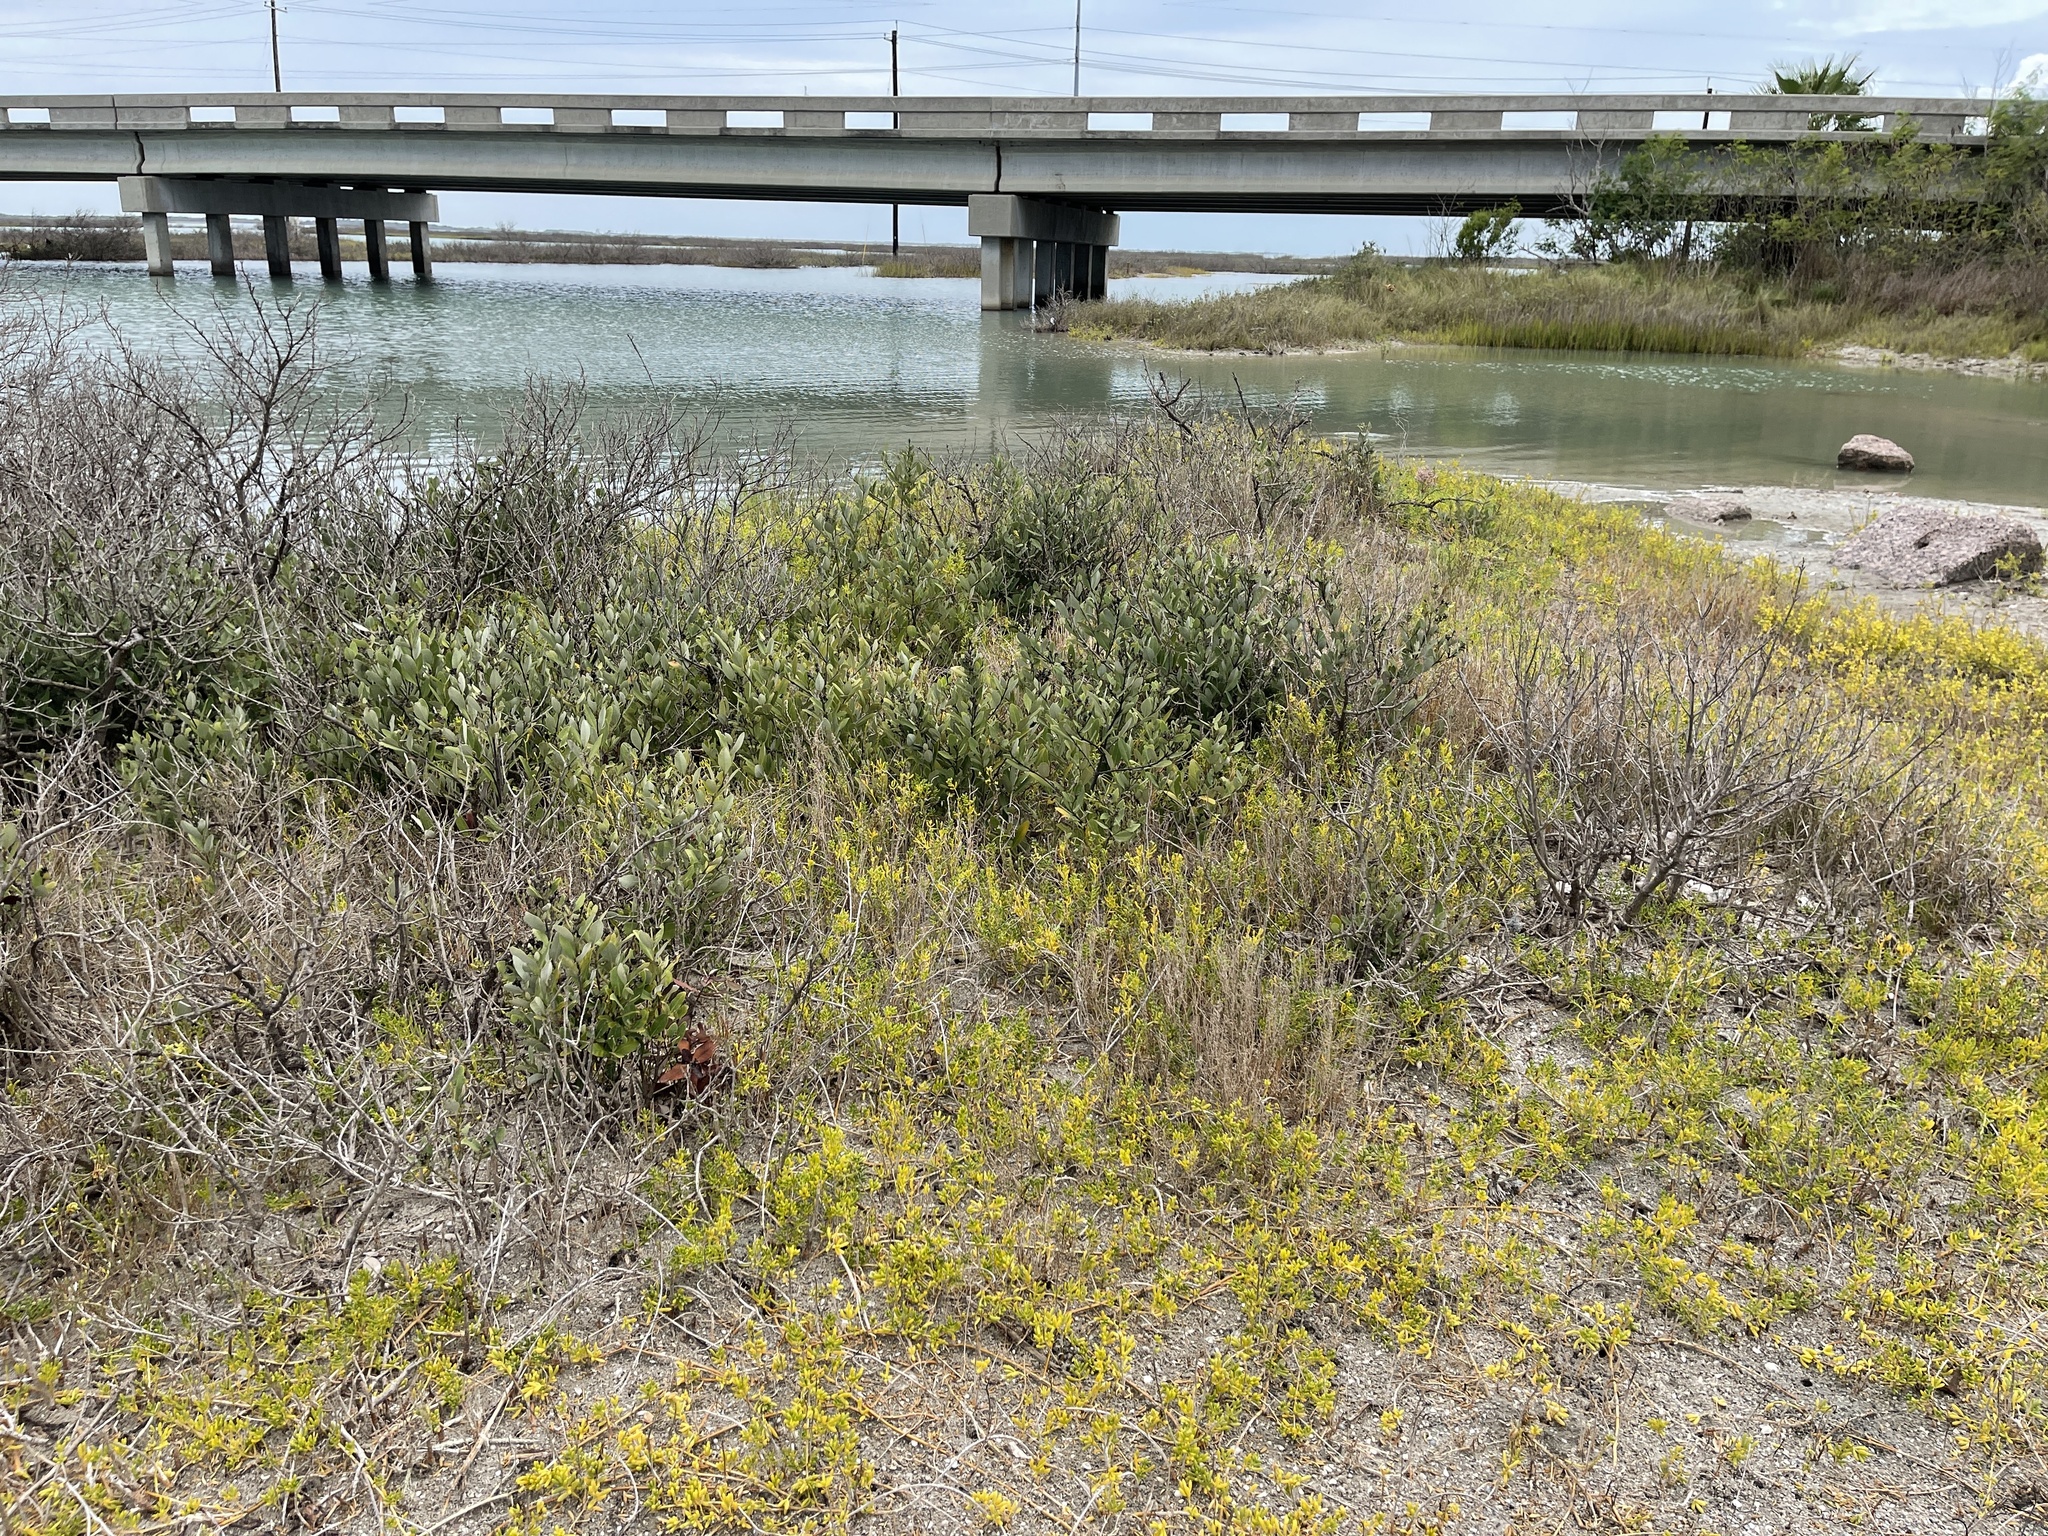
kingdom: Plantae
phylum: Tracheophyta
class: Magnoliopsida
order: Lamiales
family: Acanthaceae
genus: Avicennia
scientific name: Avicennia germinans
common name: Black mangrove
